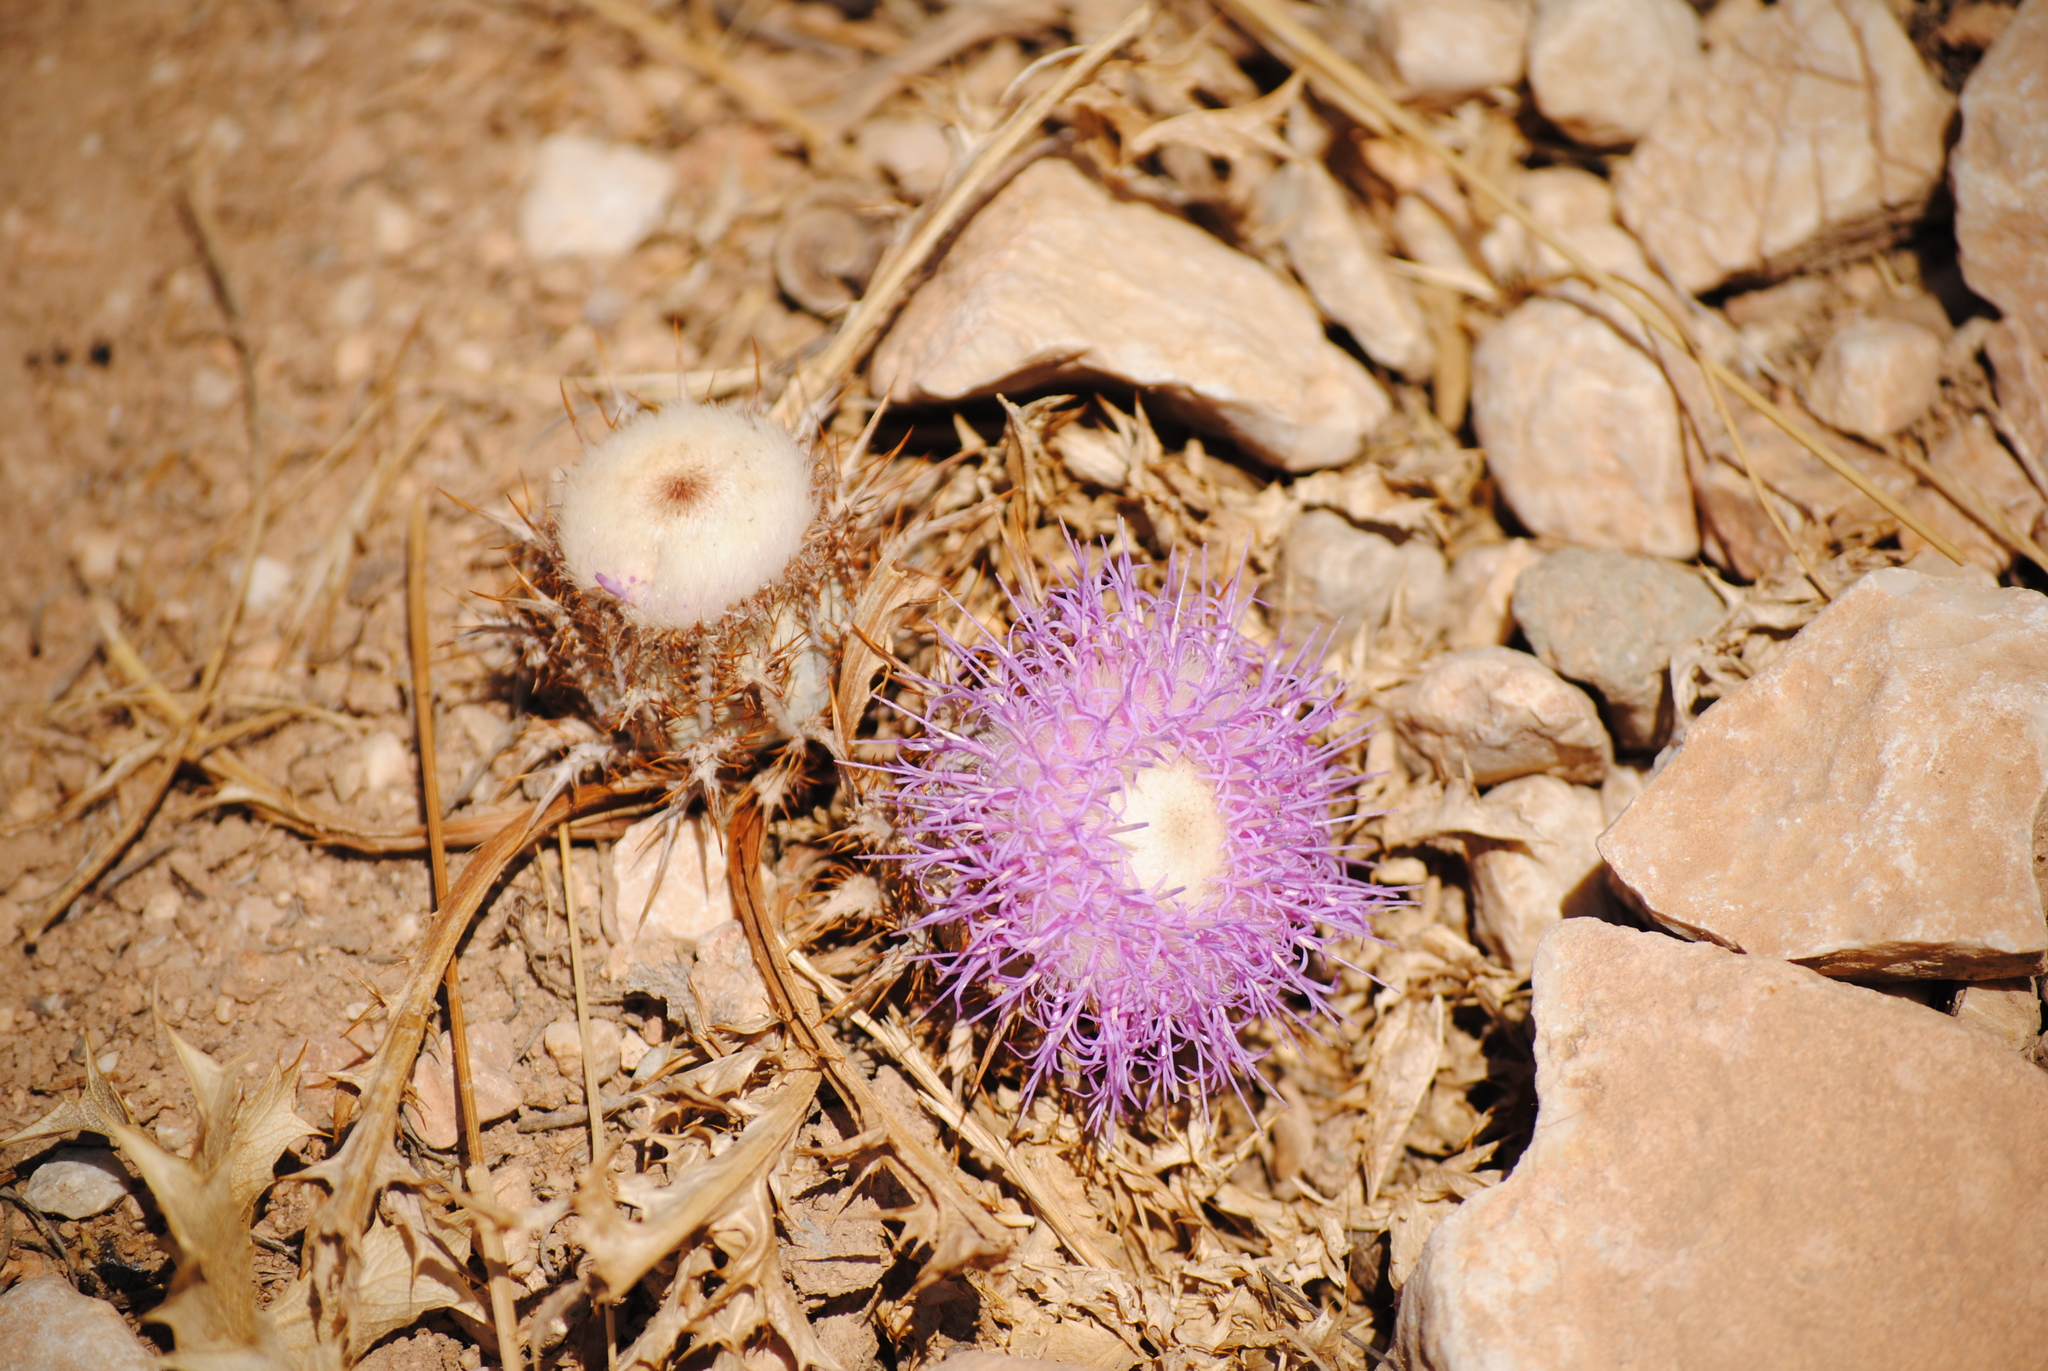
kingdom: Plantae
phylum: Tracheophyta
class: Magnoliopsida
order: Asterales
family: Asteraceae
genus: Chamaeleon
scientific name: Chamaeleon gummifer
